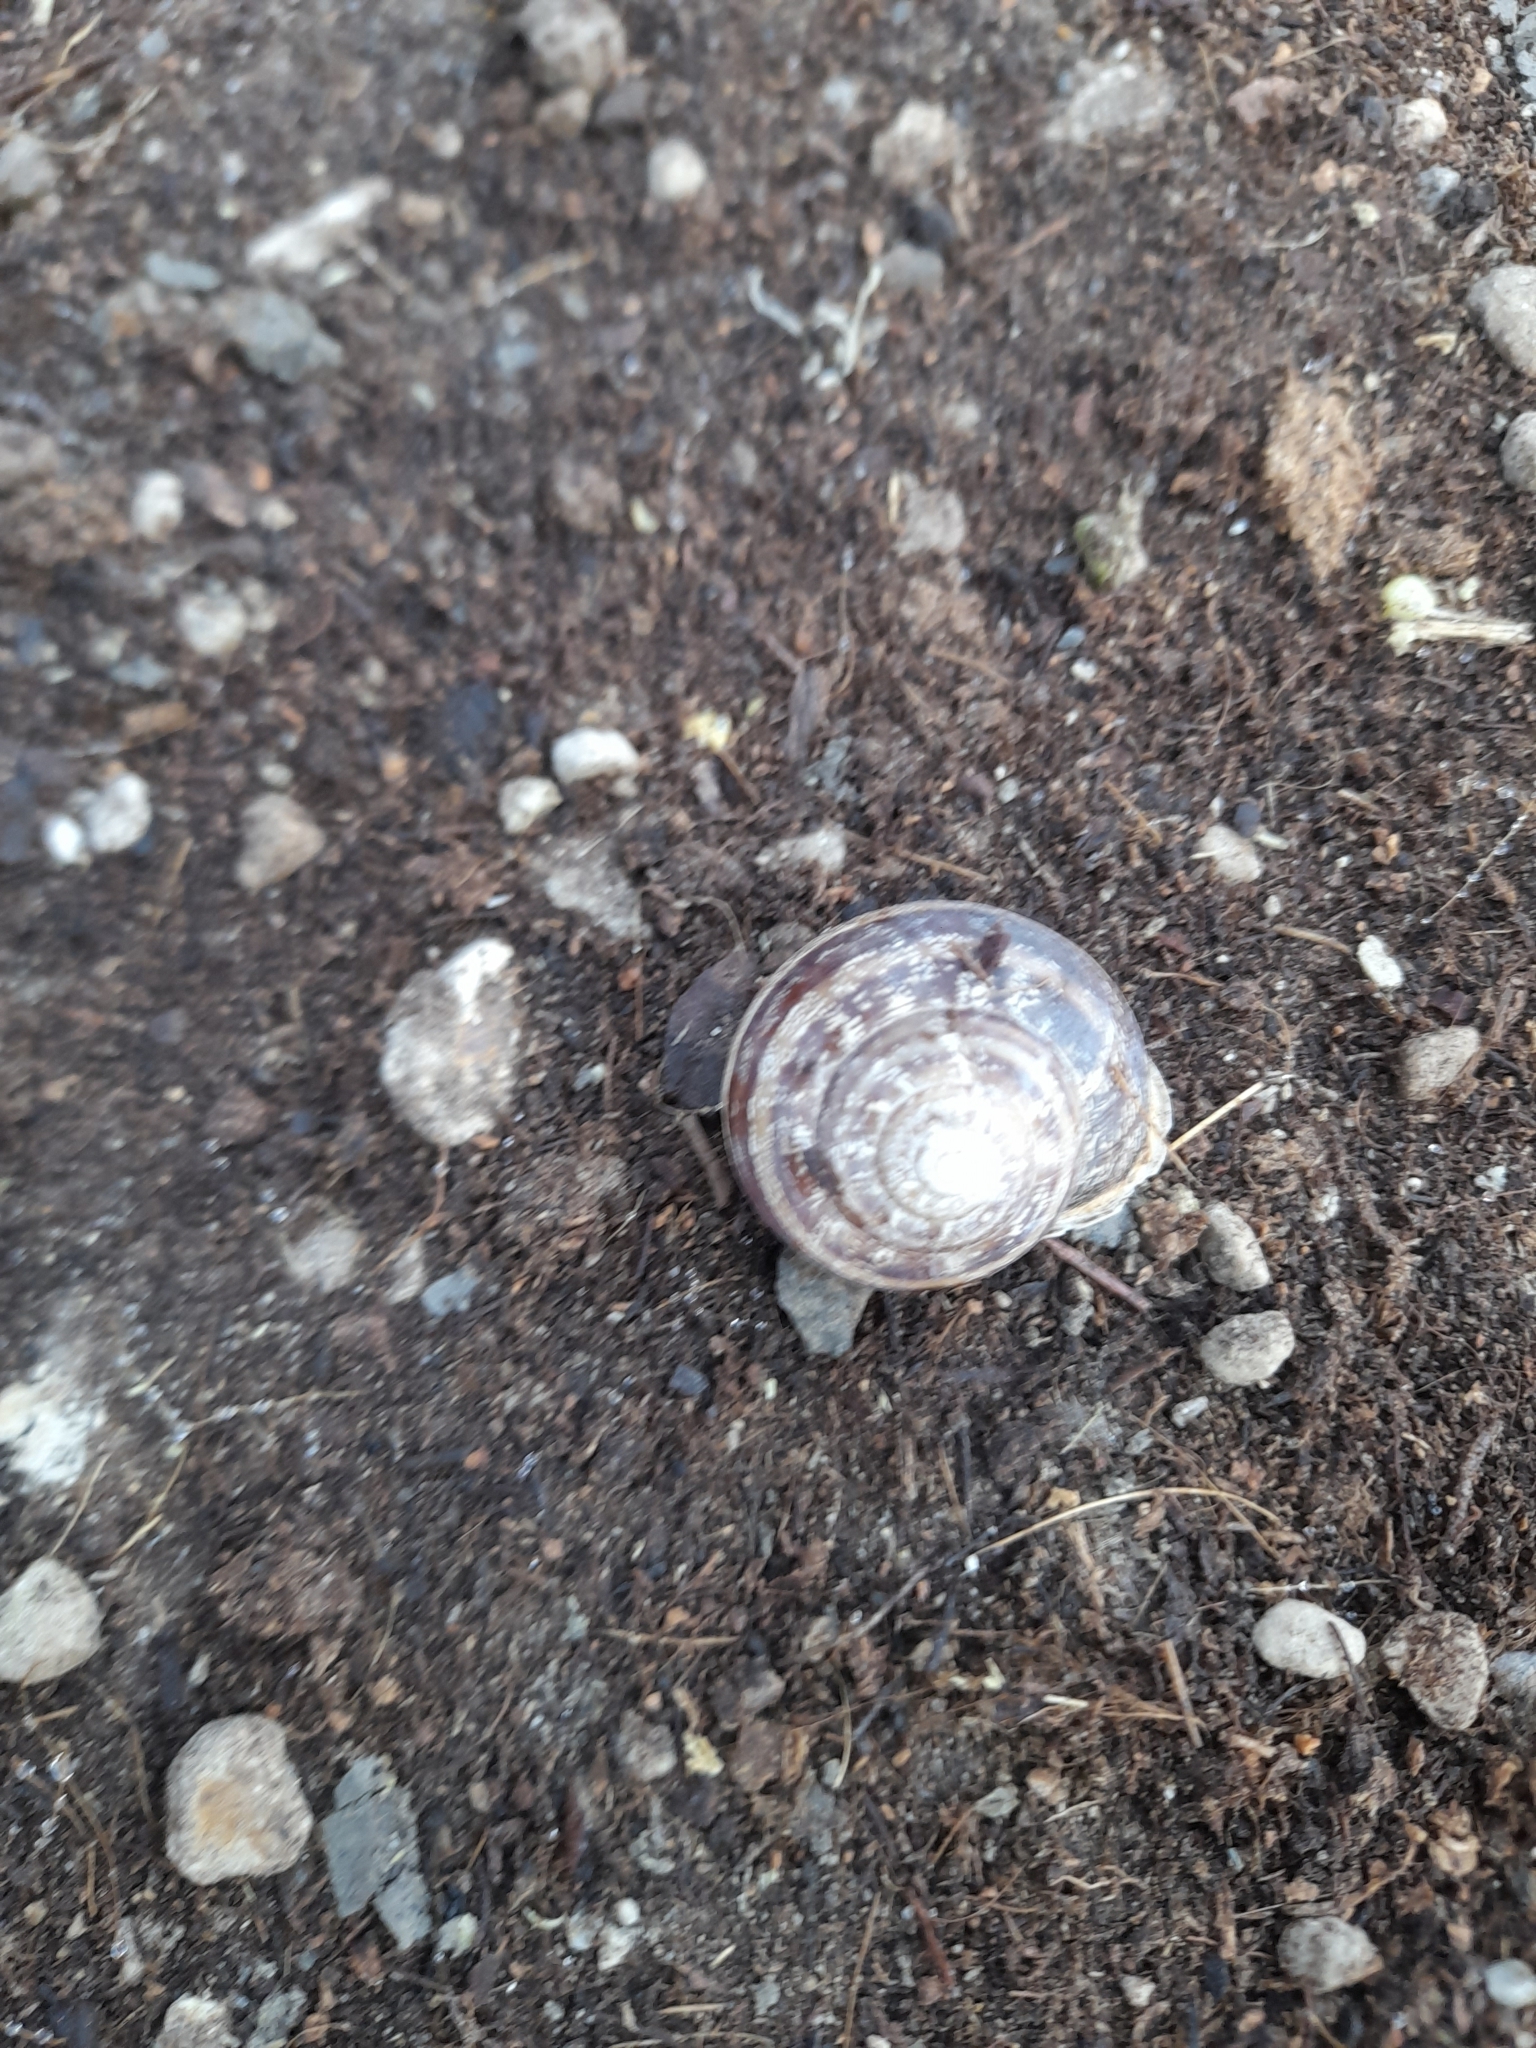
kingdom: Animalia
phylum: Mollusca
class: Gastropoda
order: Stylommatophora
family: Helicidae
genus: Eobania
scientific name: Eobania vermiculata
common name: Chocolateband snail
